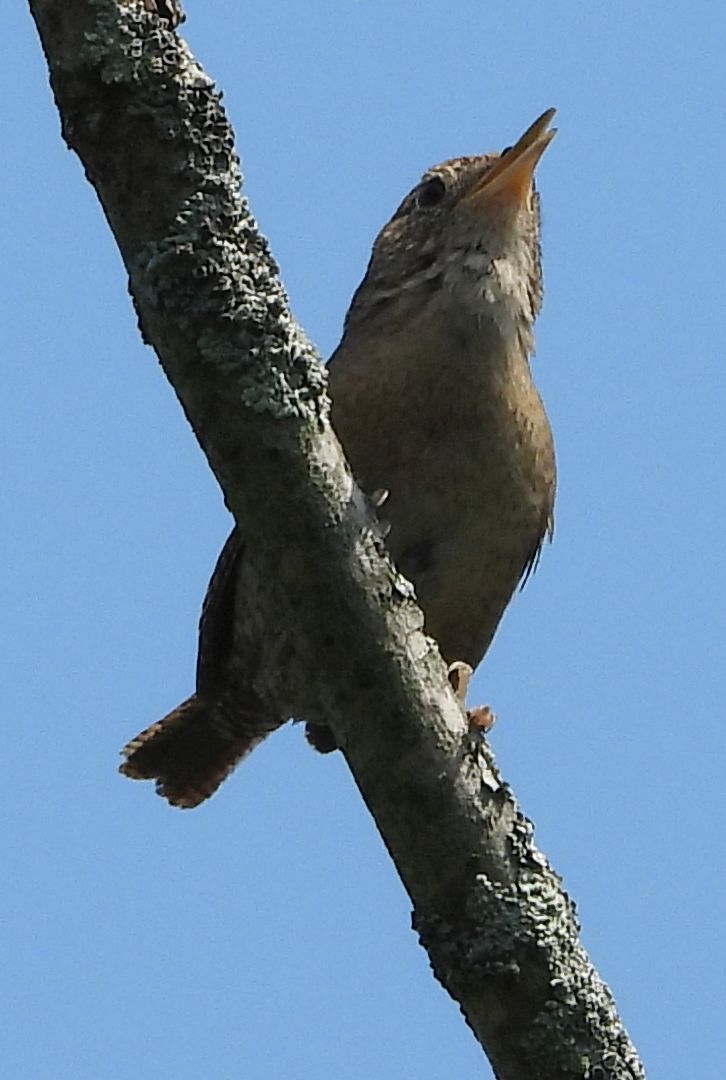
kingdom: Animalia
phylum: Chordata
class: Aves
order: Passeriformes
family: Troglodytidae
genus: Troglodytes
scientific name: Troglodytes aedon
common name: House wren
